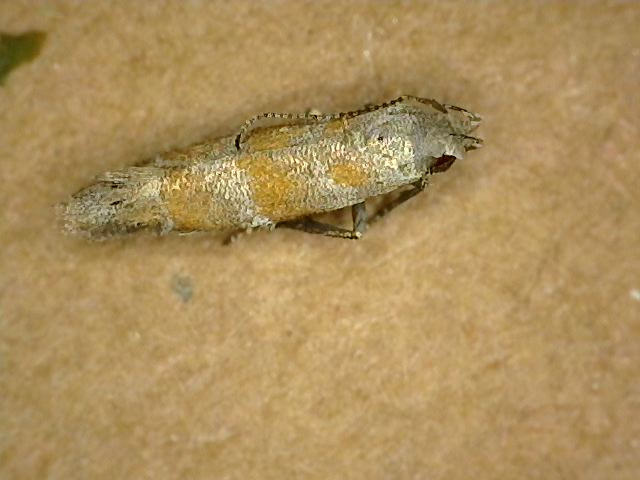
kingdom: Animalia
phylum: Arthropoda
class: Insecta
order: Lepidoptera
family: Gelechiidae
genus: Battaristis
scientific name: Battaristis vittella
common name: Orange stripe-backed moth
